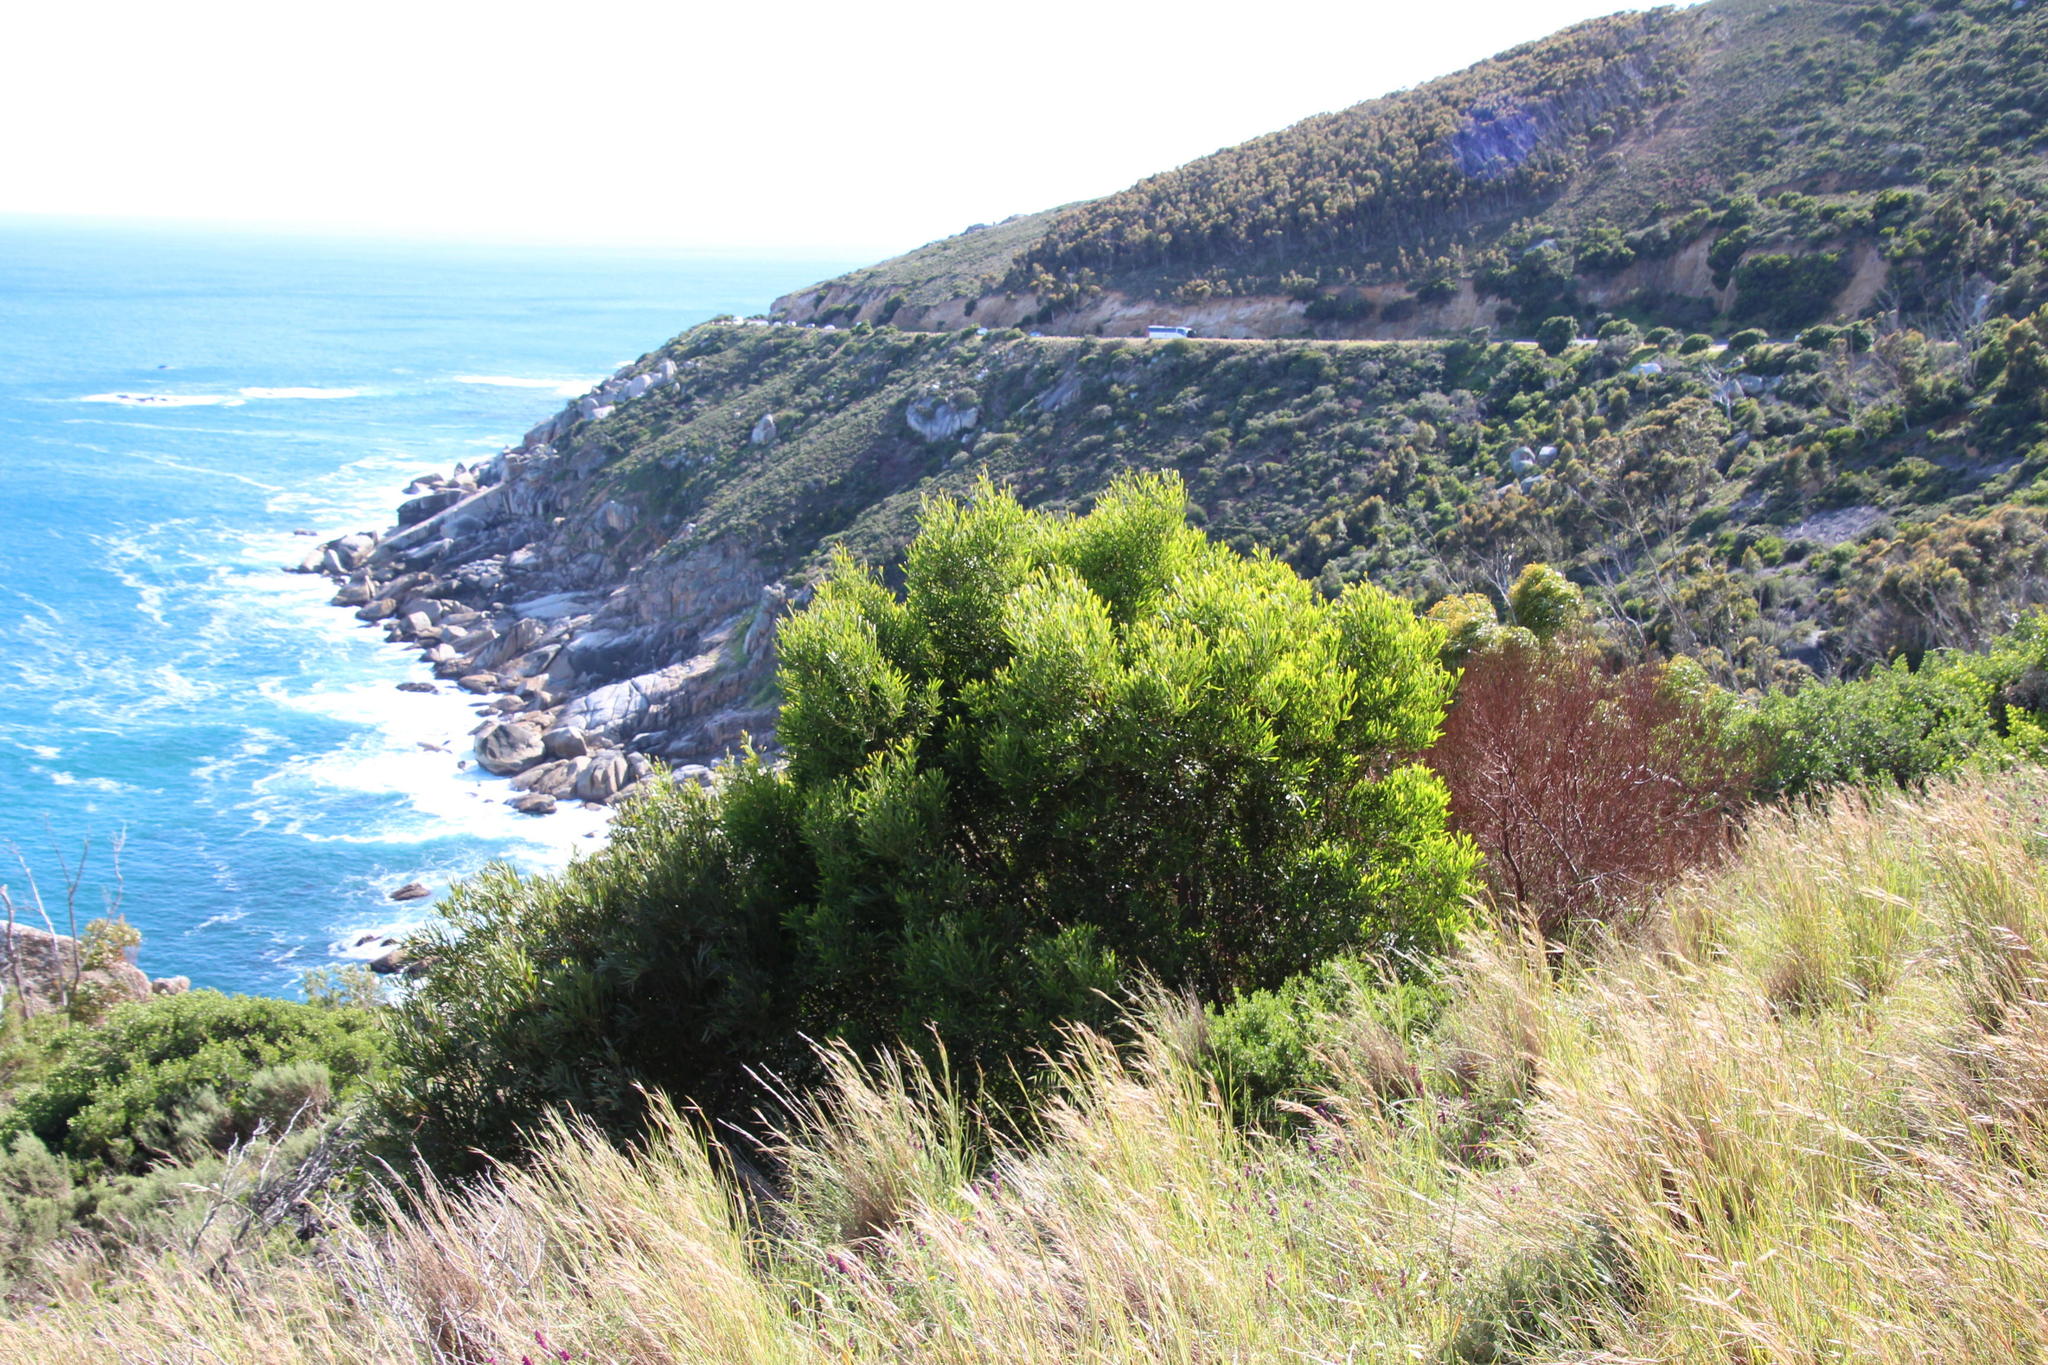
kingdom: Plantae
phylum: Tracheophyta
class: Magnoliopsida
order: Fabales
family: Fabaceae
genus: Acacia
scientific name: Acacia cyclops
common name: Coastal wattle
